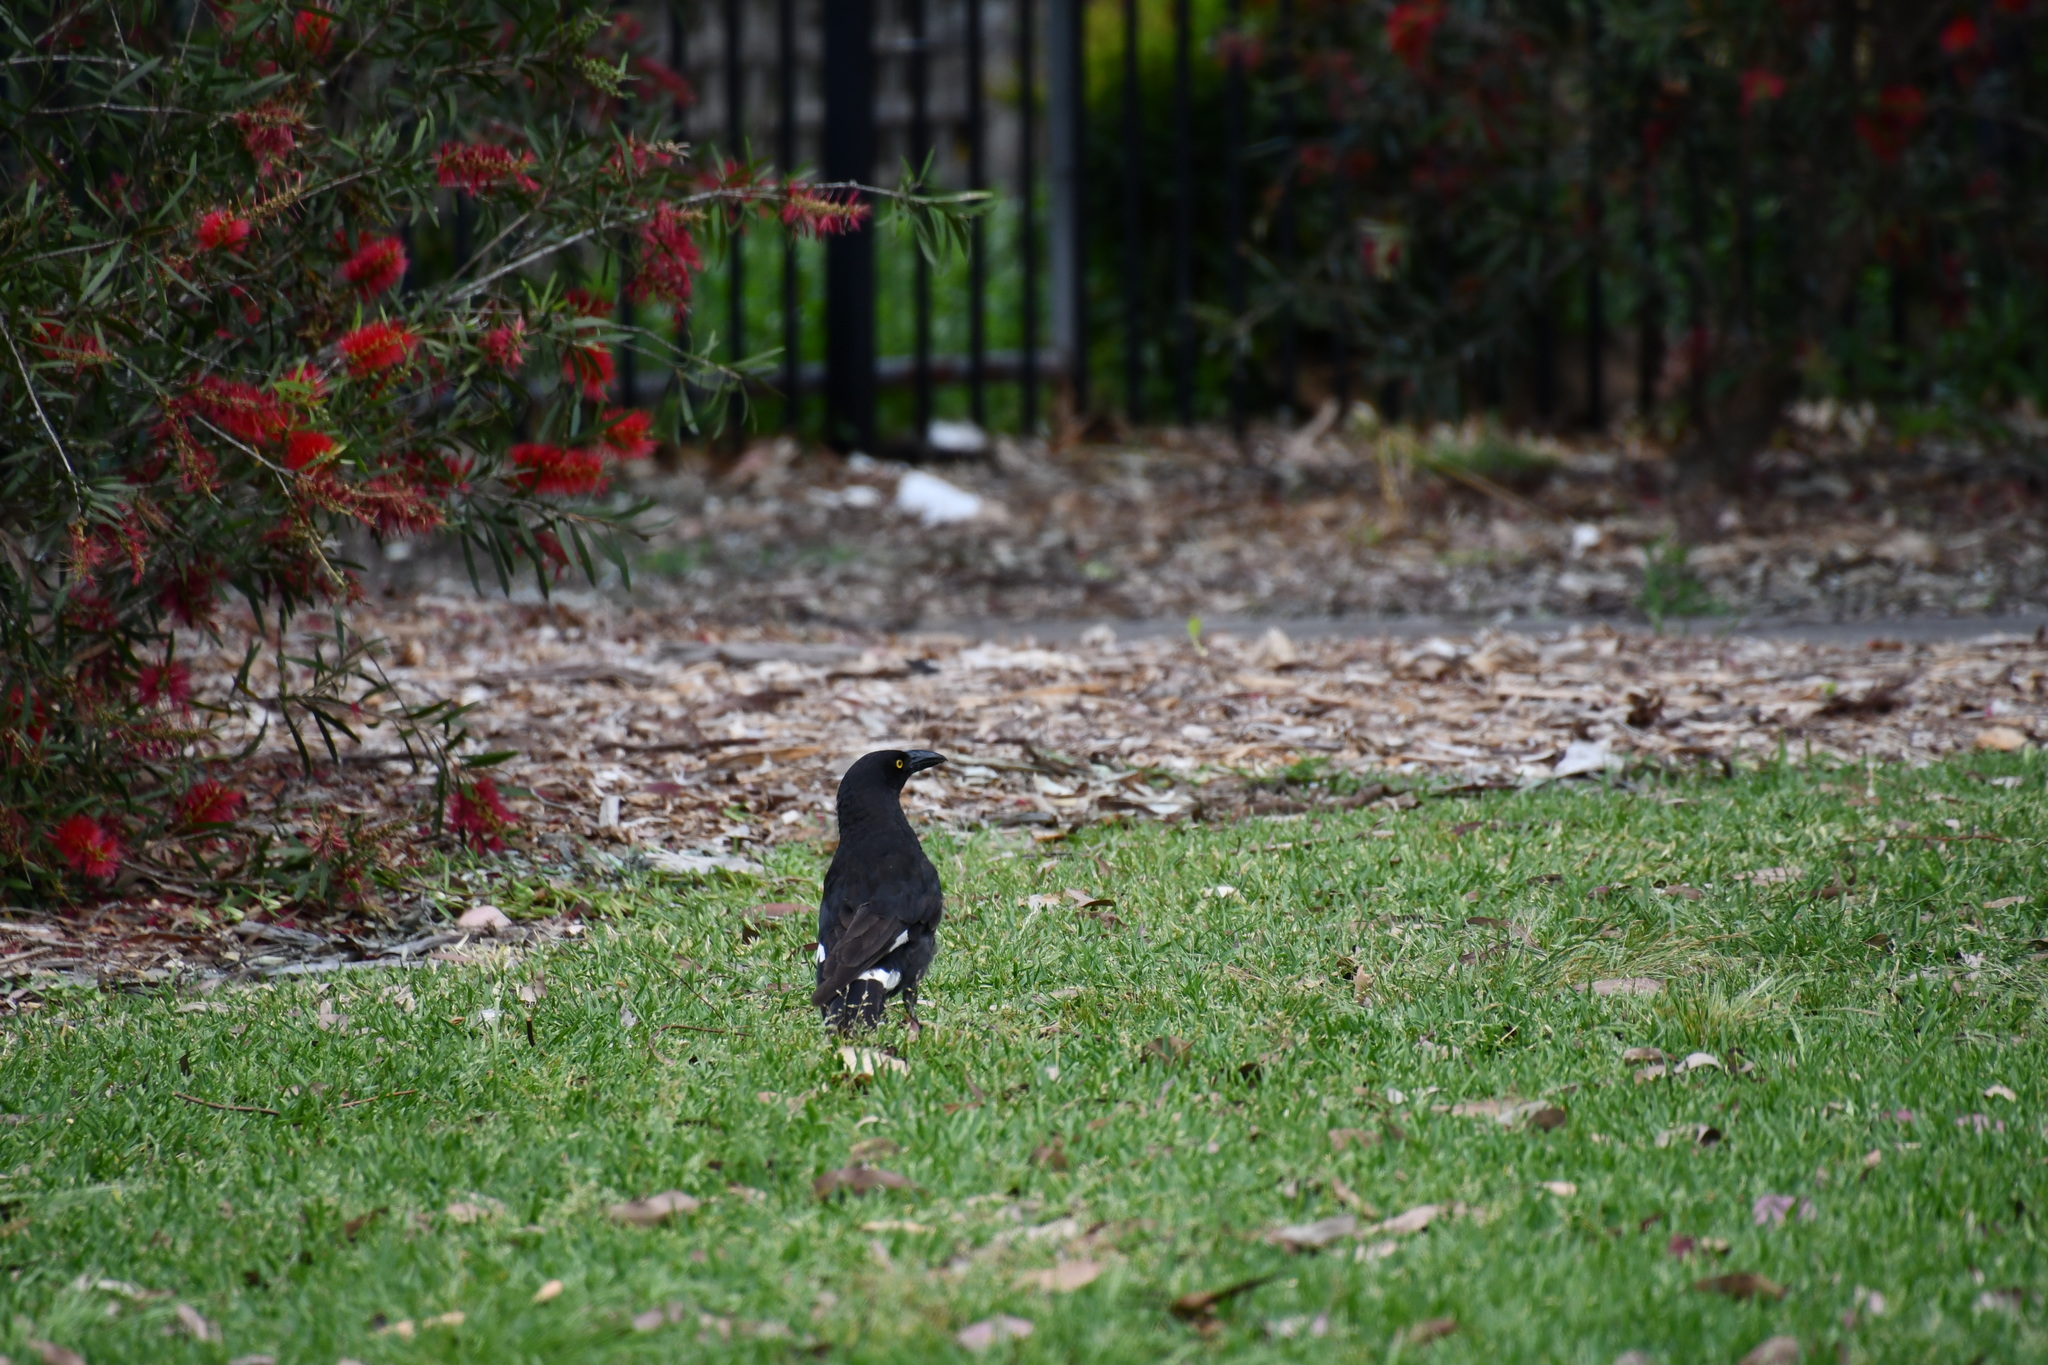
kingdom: Animalia
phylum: Chordata
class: Aves
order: Passeriformes
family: Cracticidae
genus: Strepera
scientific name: Strepera graculina
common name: Pied currawong
